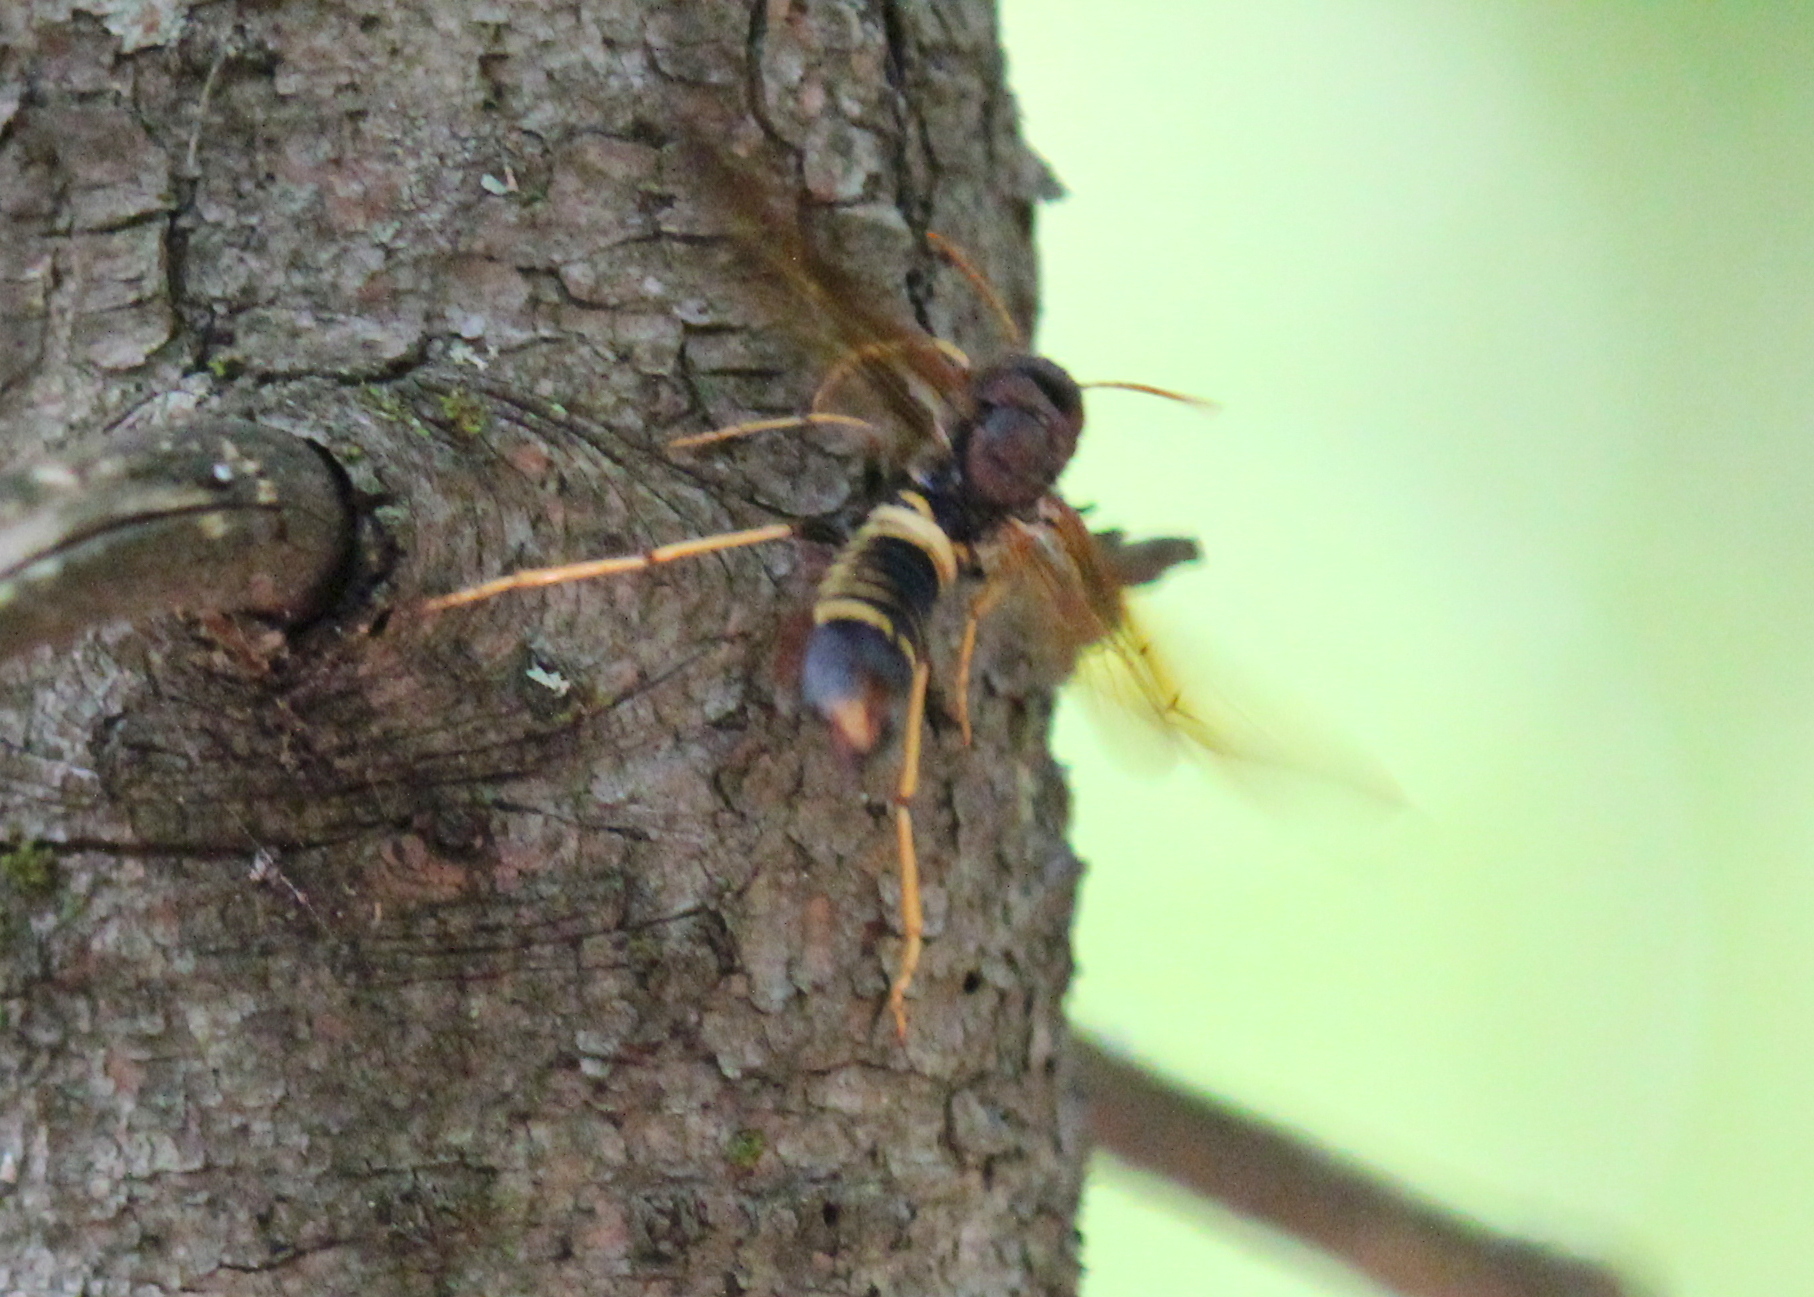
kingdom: Animalia
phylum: Arthropoda
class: Insecta
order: Hymenoptera
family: Siricidae
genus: Tremex
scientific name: Tremex columba
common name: Wasp
